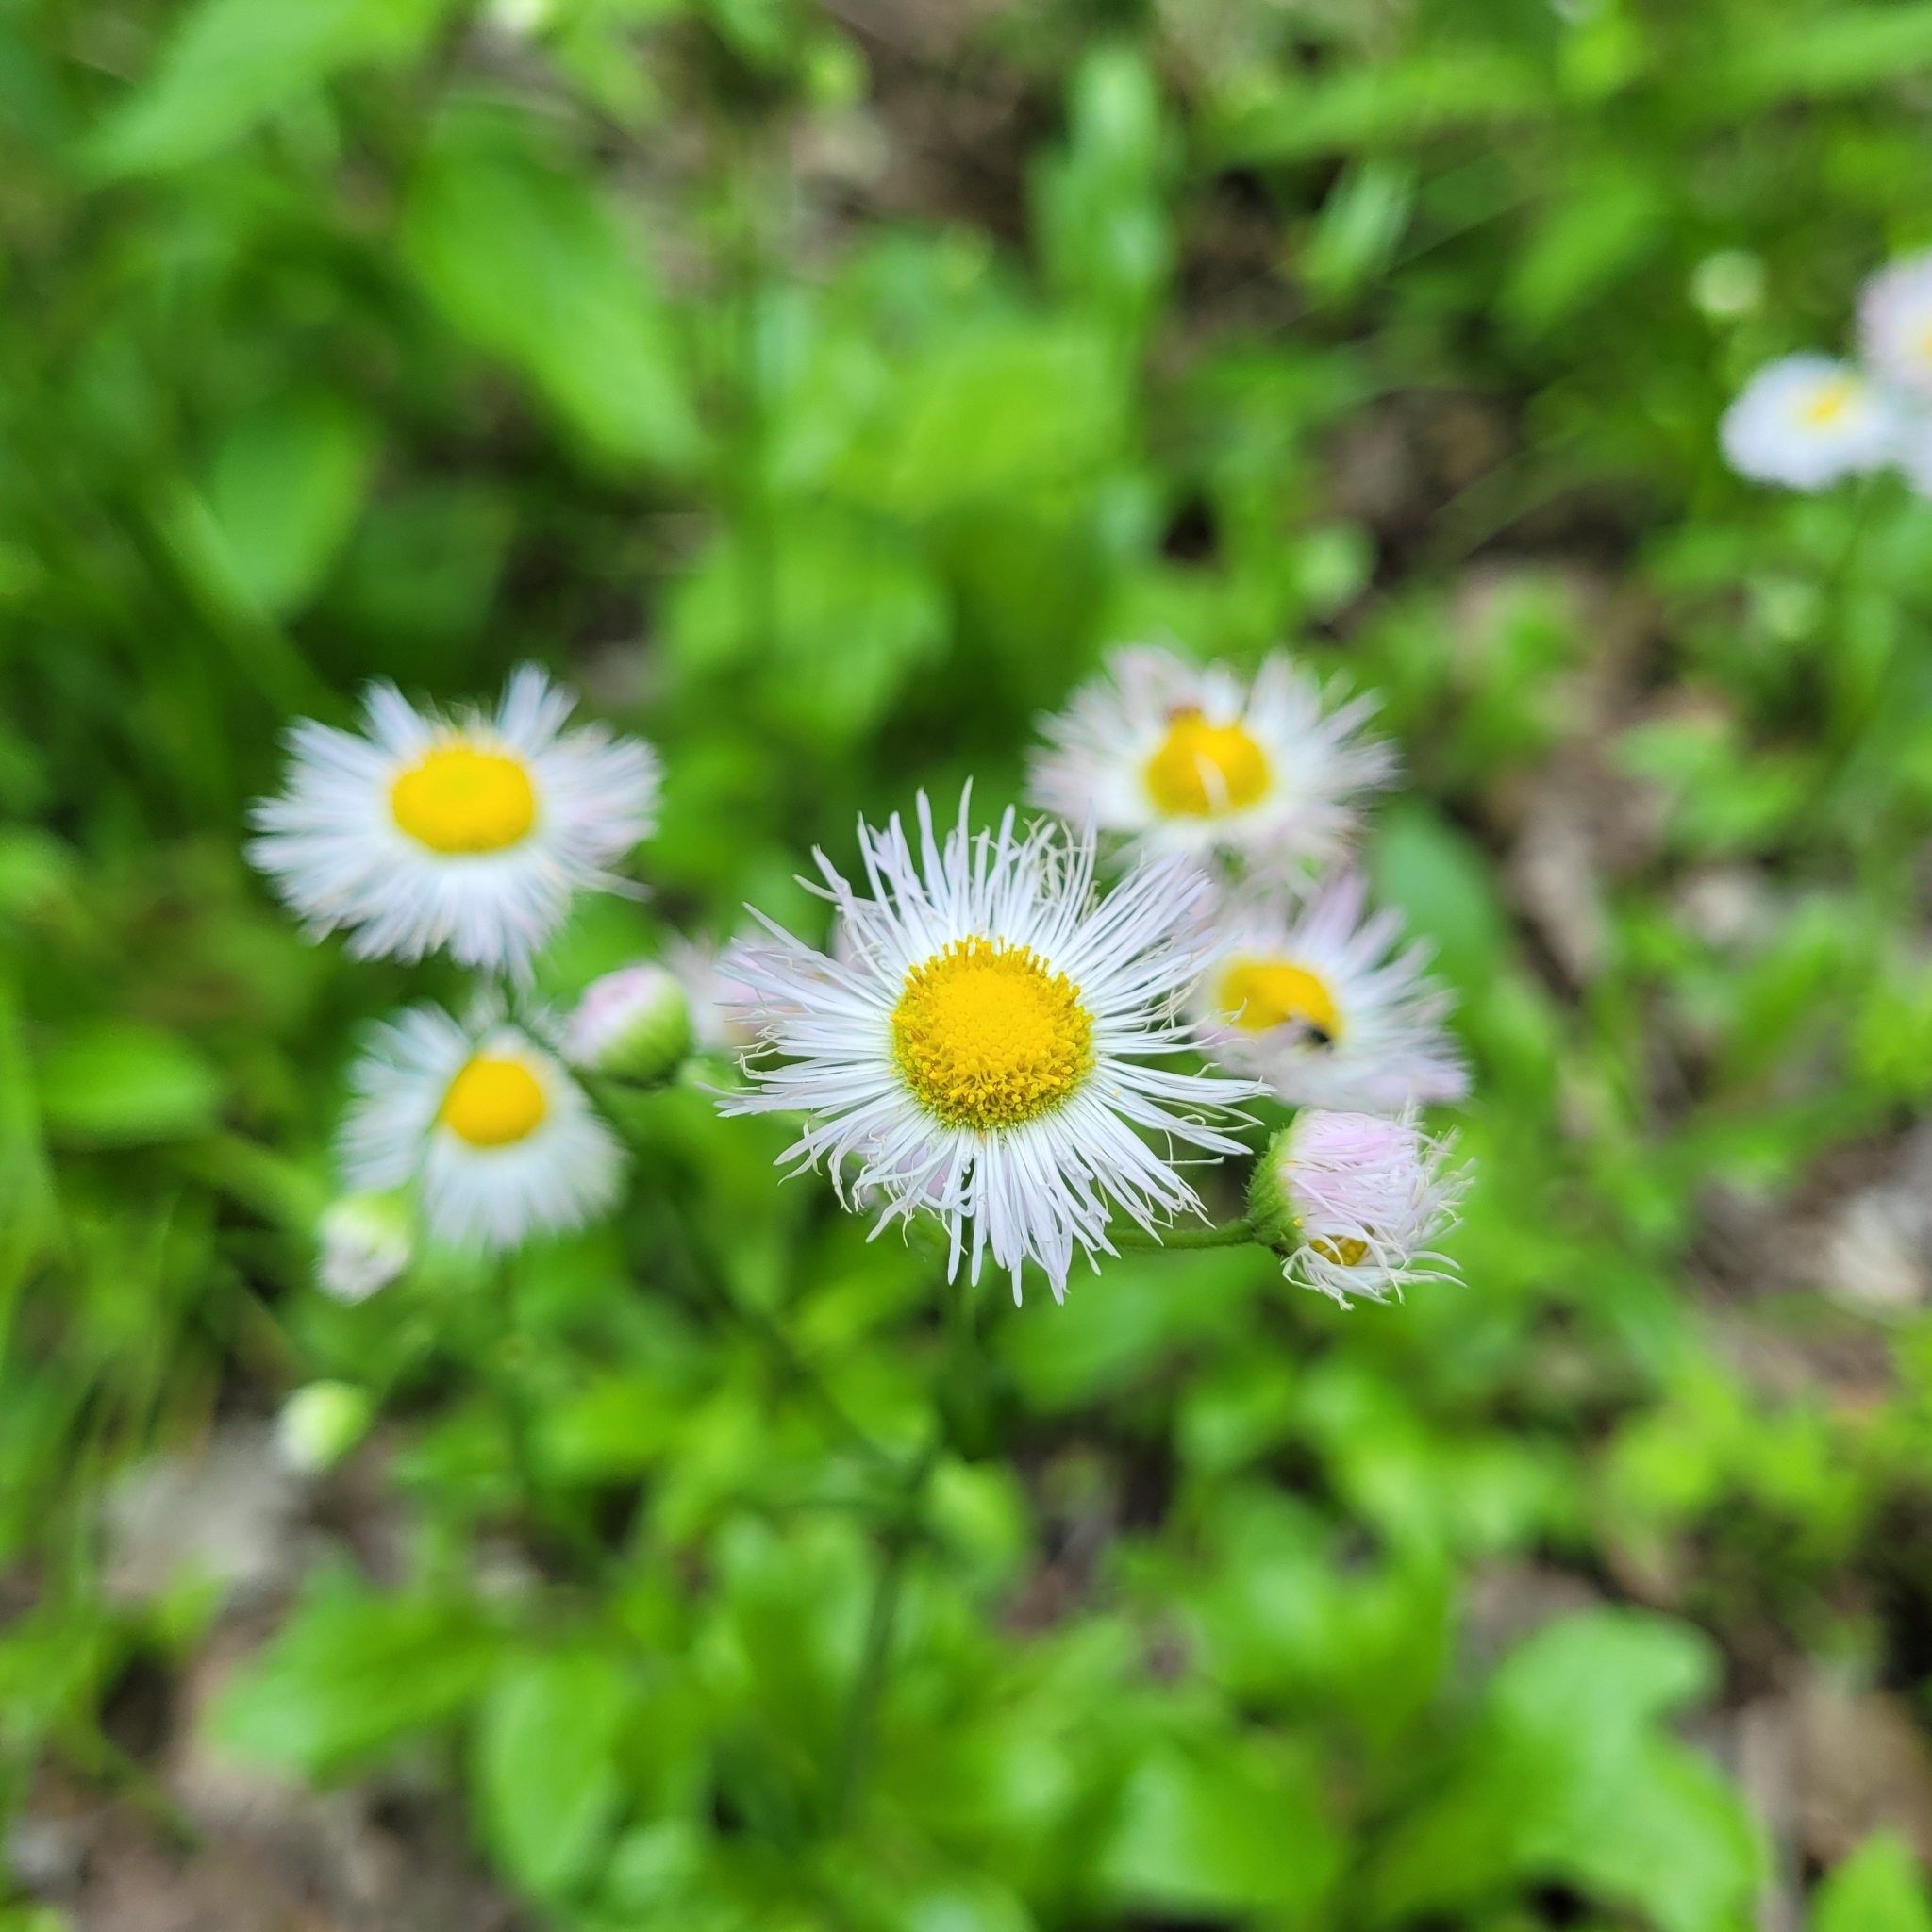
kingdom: Plantae
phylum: Tracheophyta
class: Magnoliopsida
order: Asterales
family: Asteraceae
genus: Erigeron
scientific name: Erigeron philadelphicus
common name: Robin's-plantain
